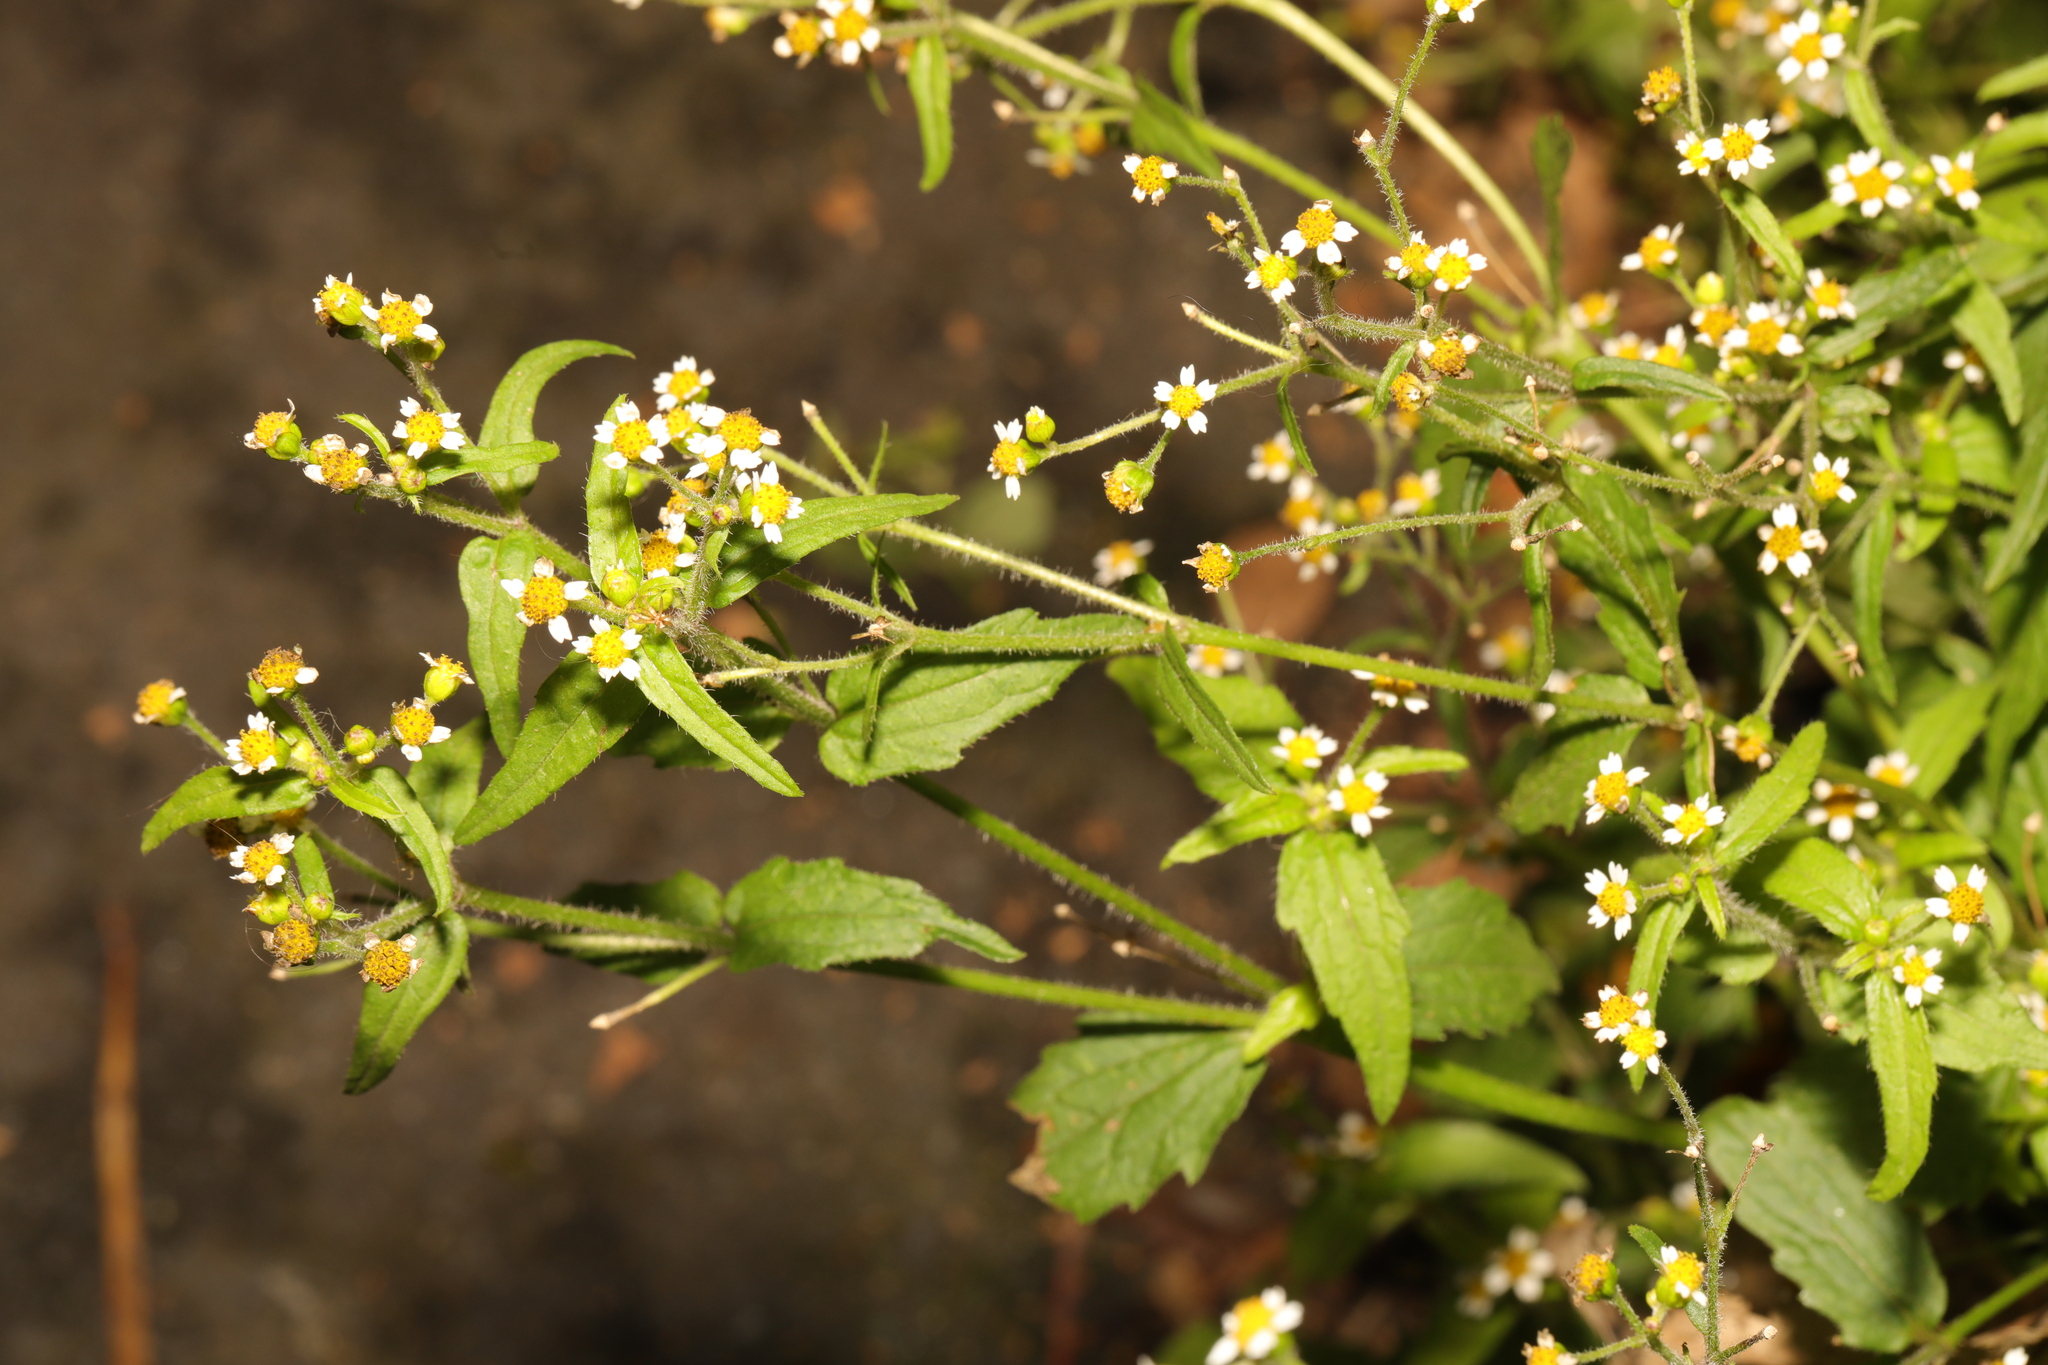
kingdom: Plantae
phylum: Tracheophyta
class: Magnoliopsida
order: Asterales
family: Asteraceae
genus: Galinsoga
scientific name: Galinsoga quadriradiata
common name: Shaggy soldier
